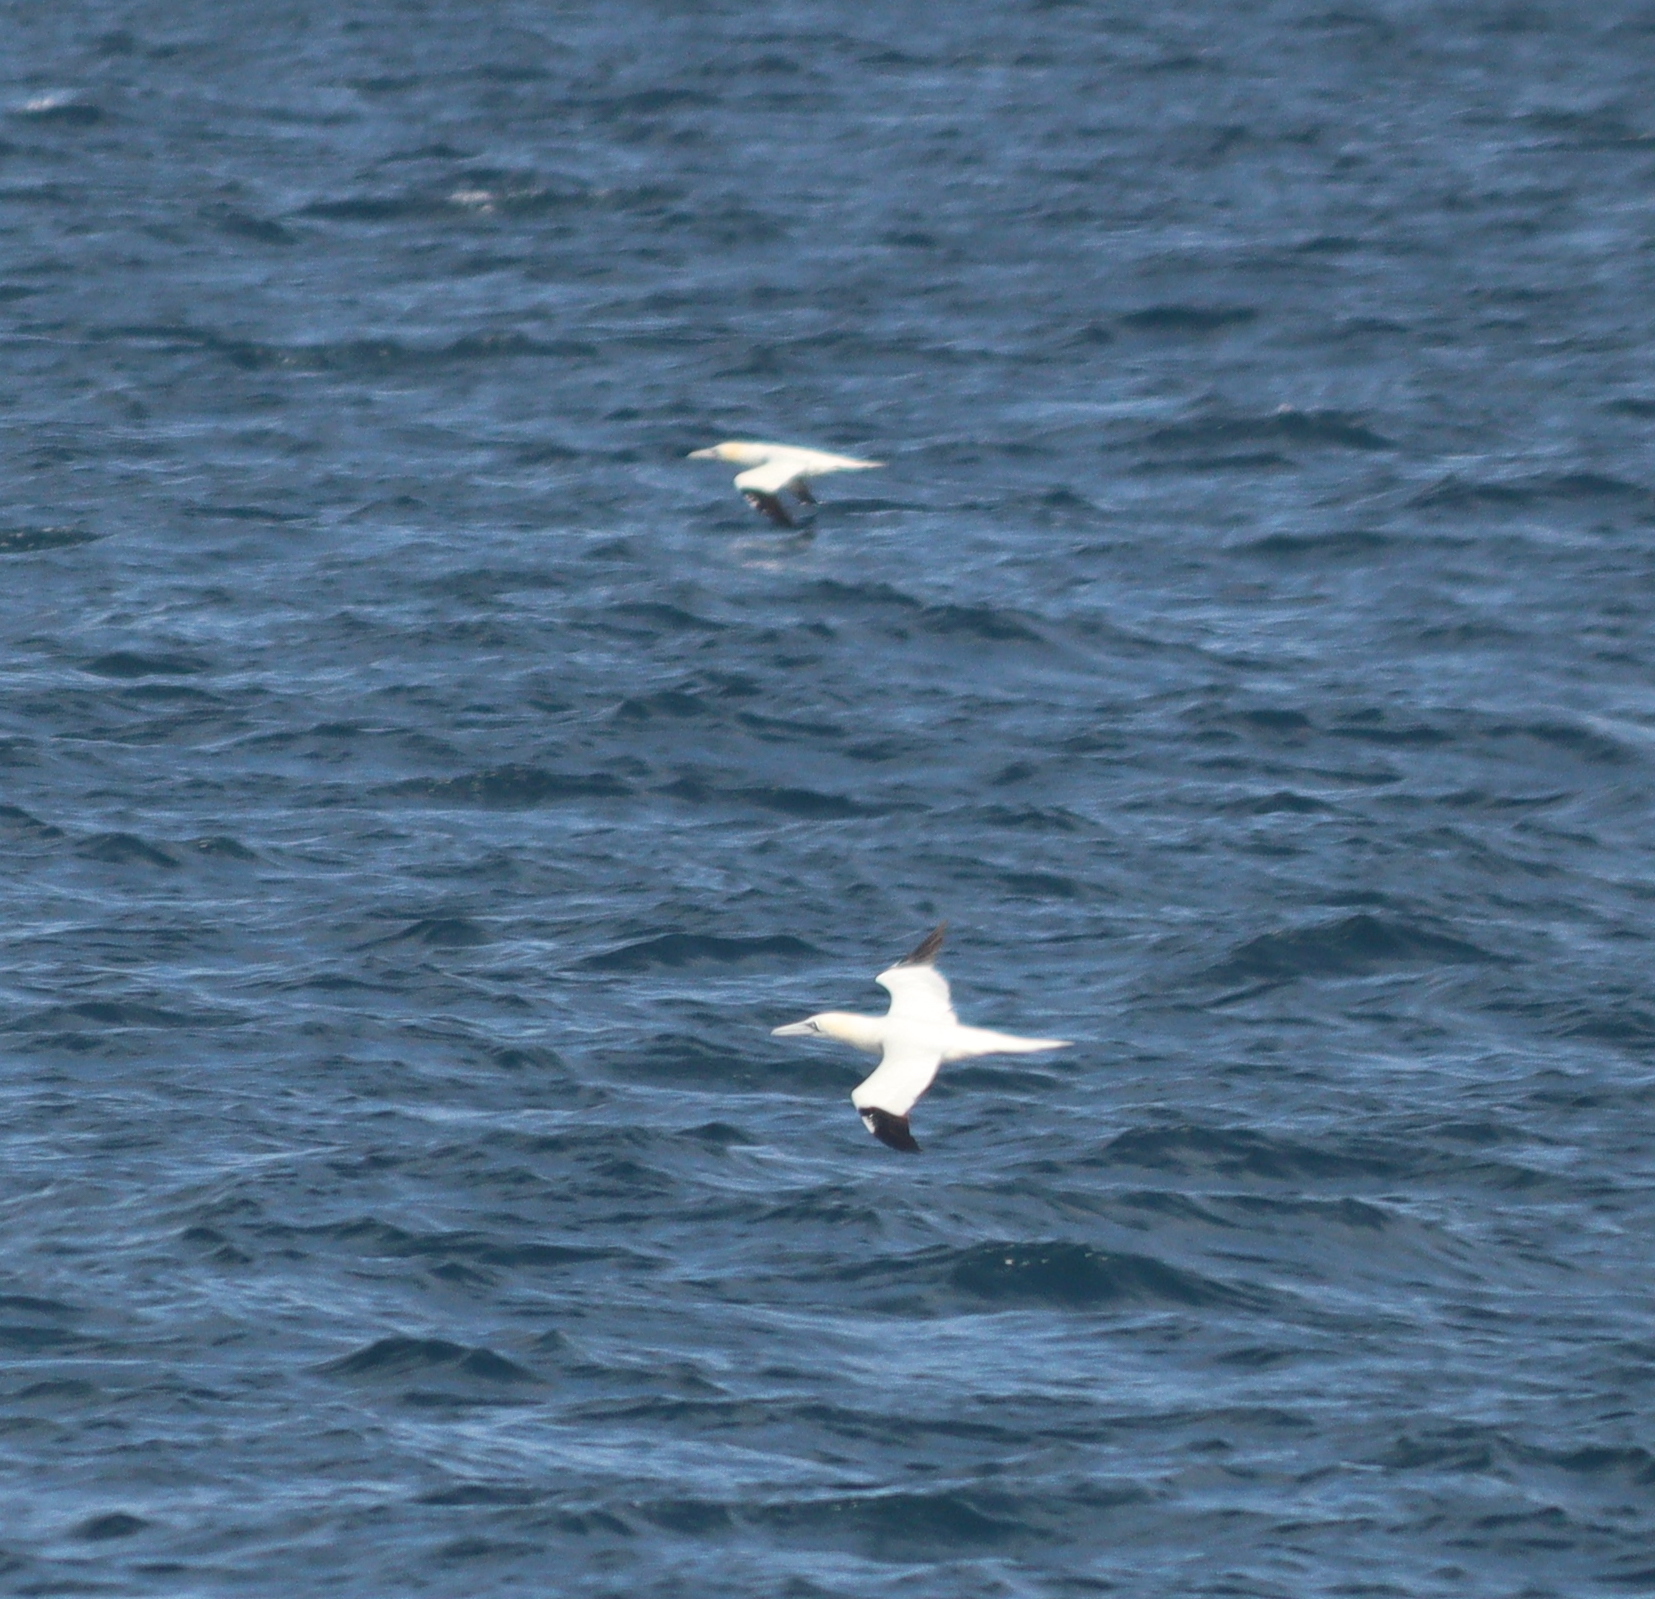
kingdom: Animalia
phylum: Chordata
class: Aves
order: Suliformes
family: Sulidae
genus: Morus
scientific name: Morus bassanus
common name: Northern gannet
